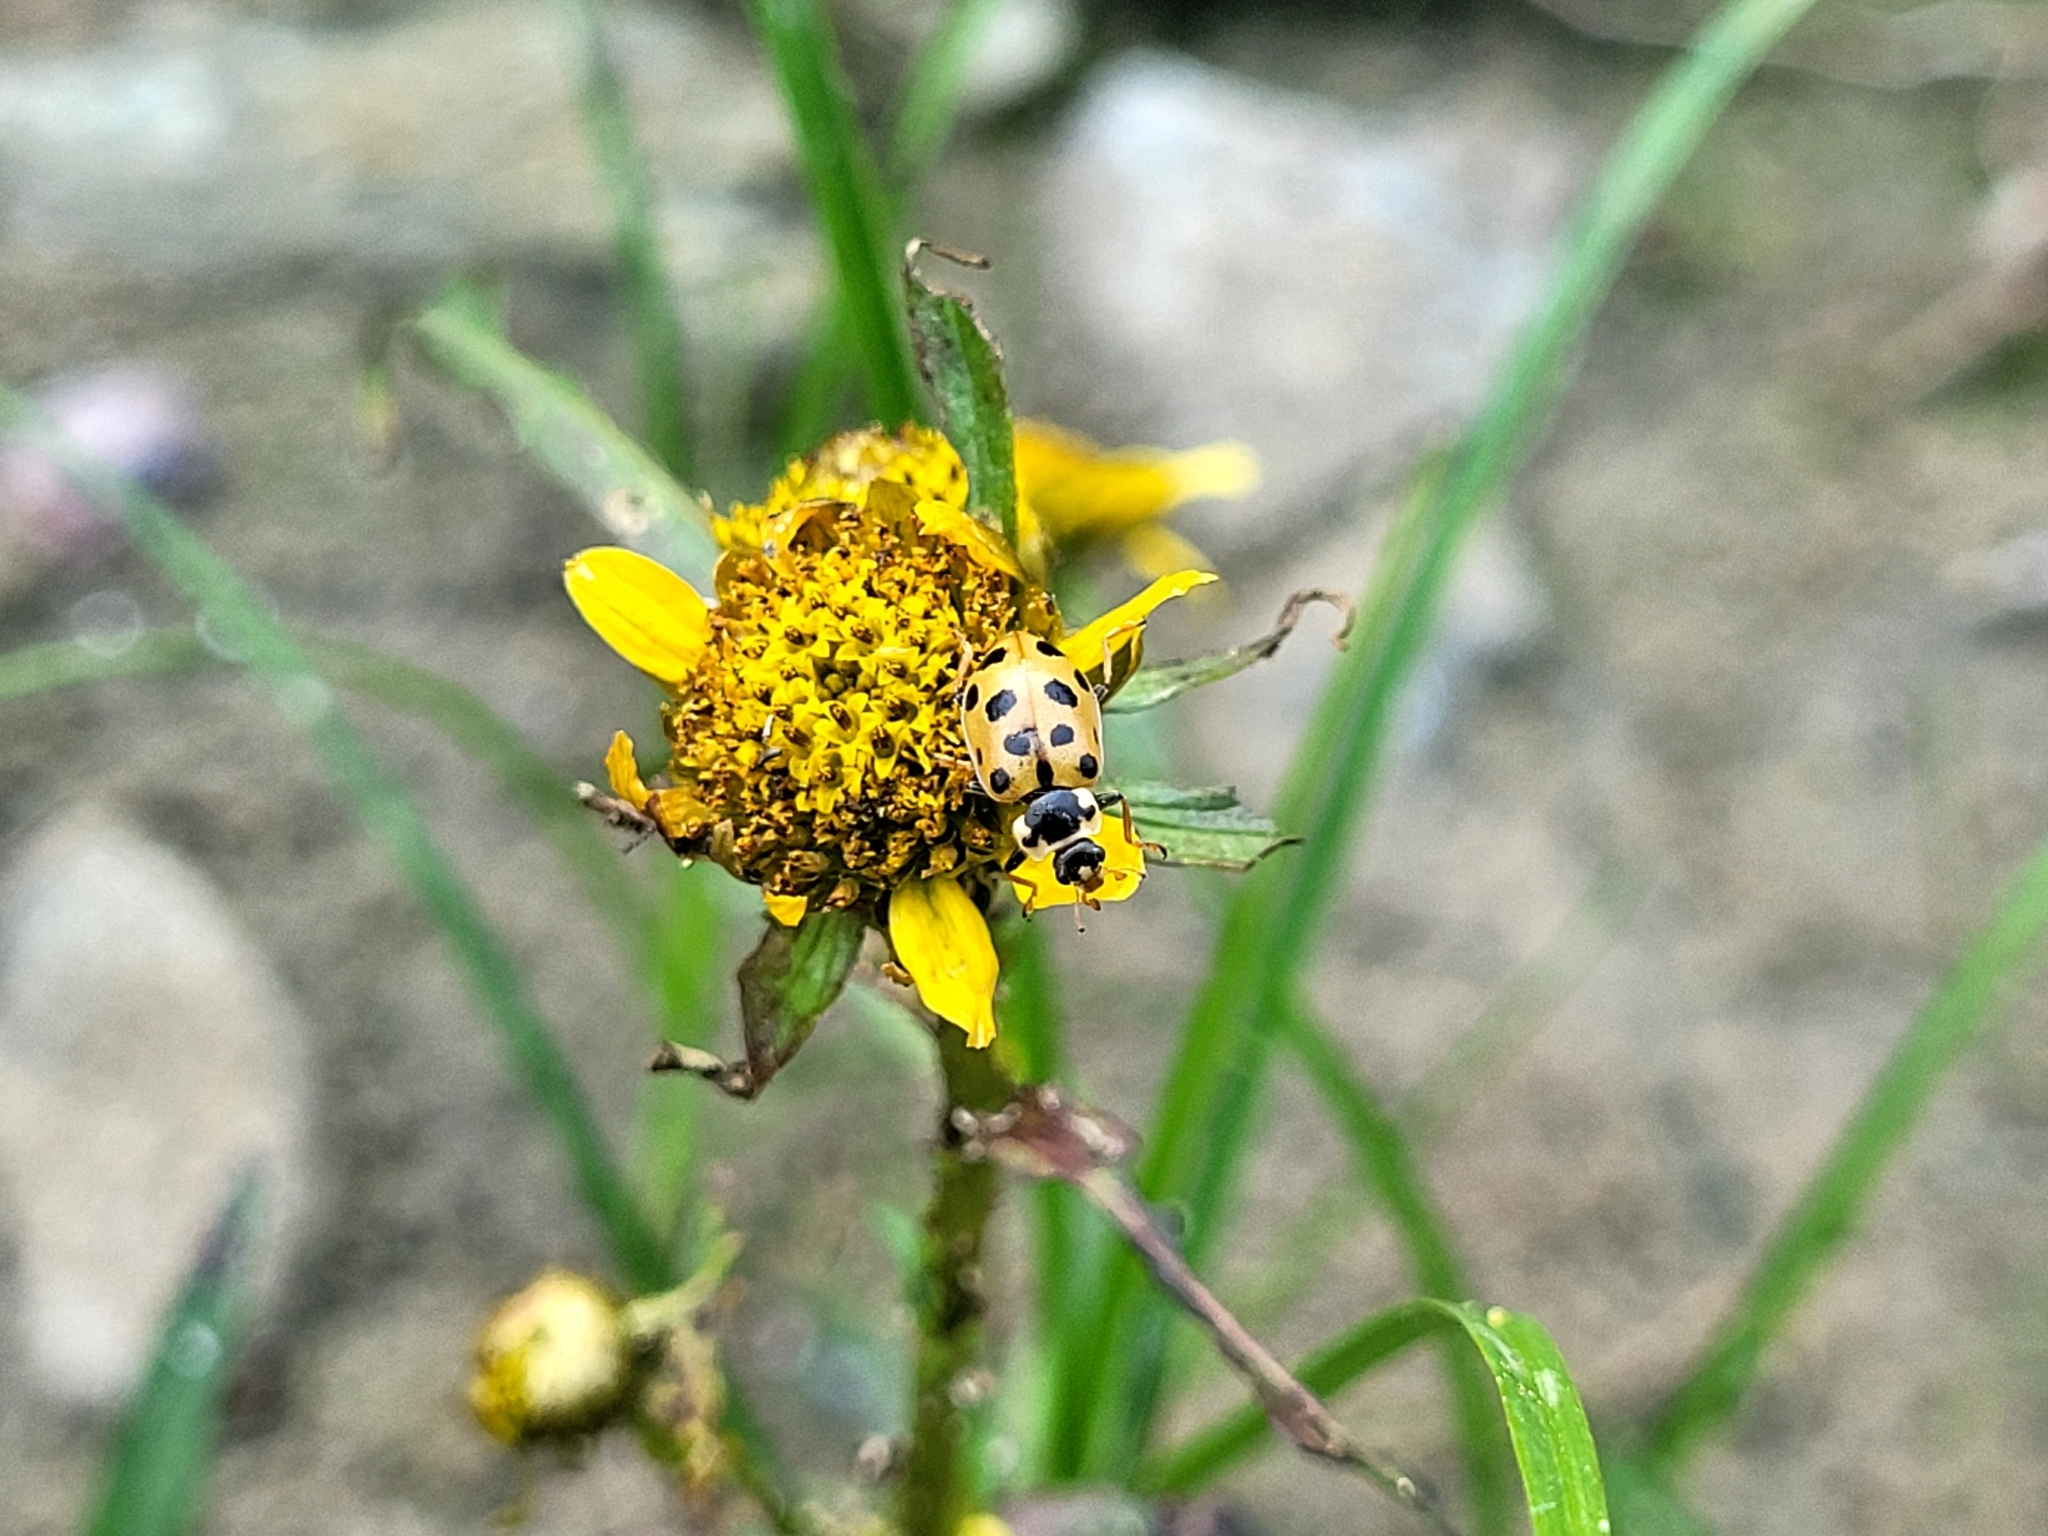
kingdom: Animalia
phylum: Arthropoda
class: Insecta
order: Coleoptera
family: Coccinellidae
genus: Hippodamia
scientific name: Hippodamia tredecimpunctata
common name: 13-spot ladybird
